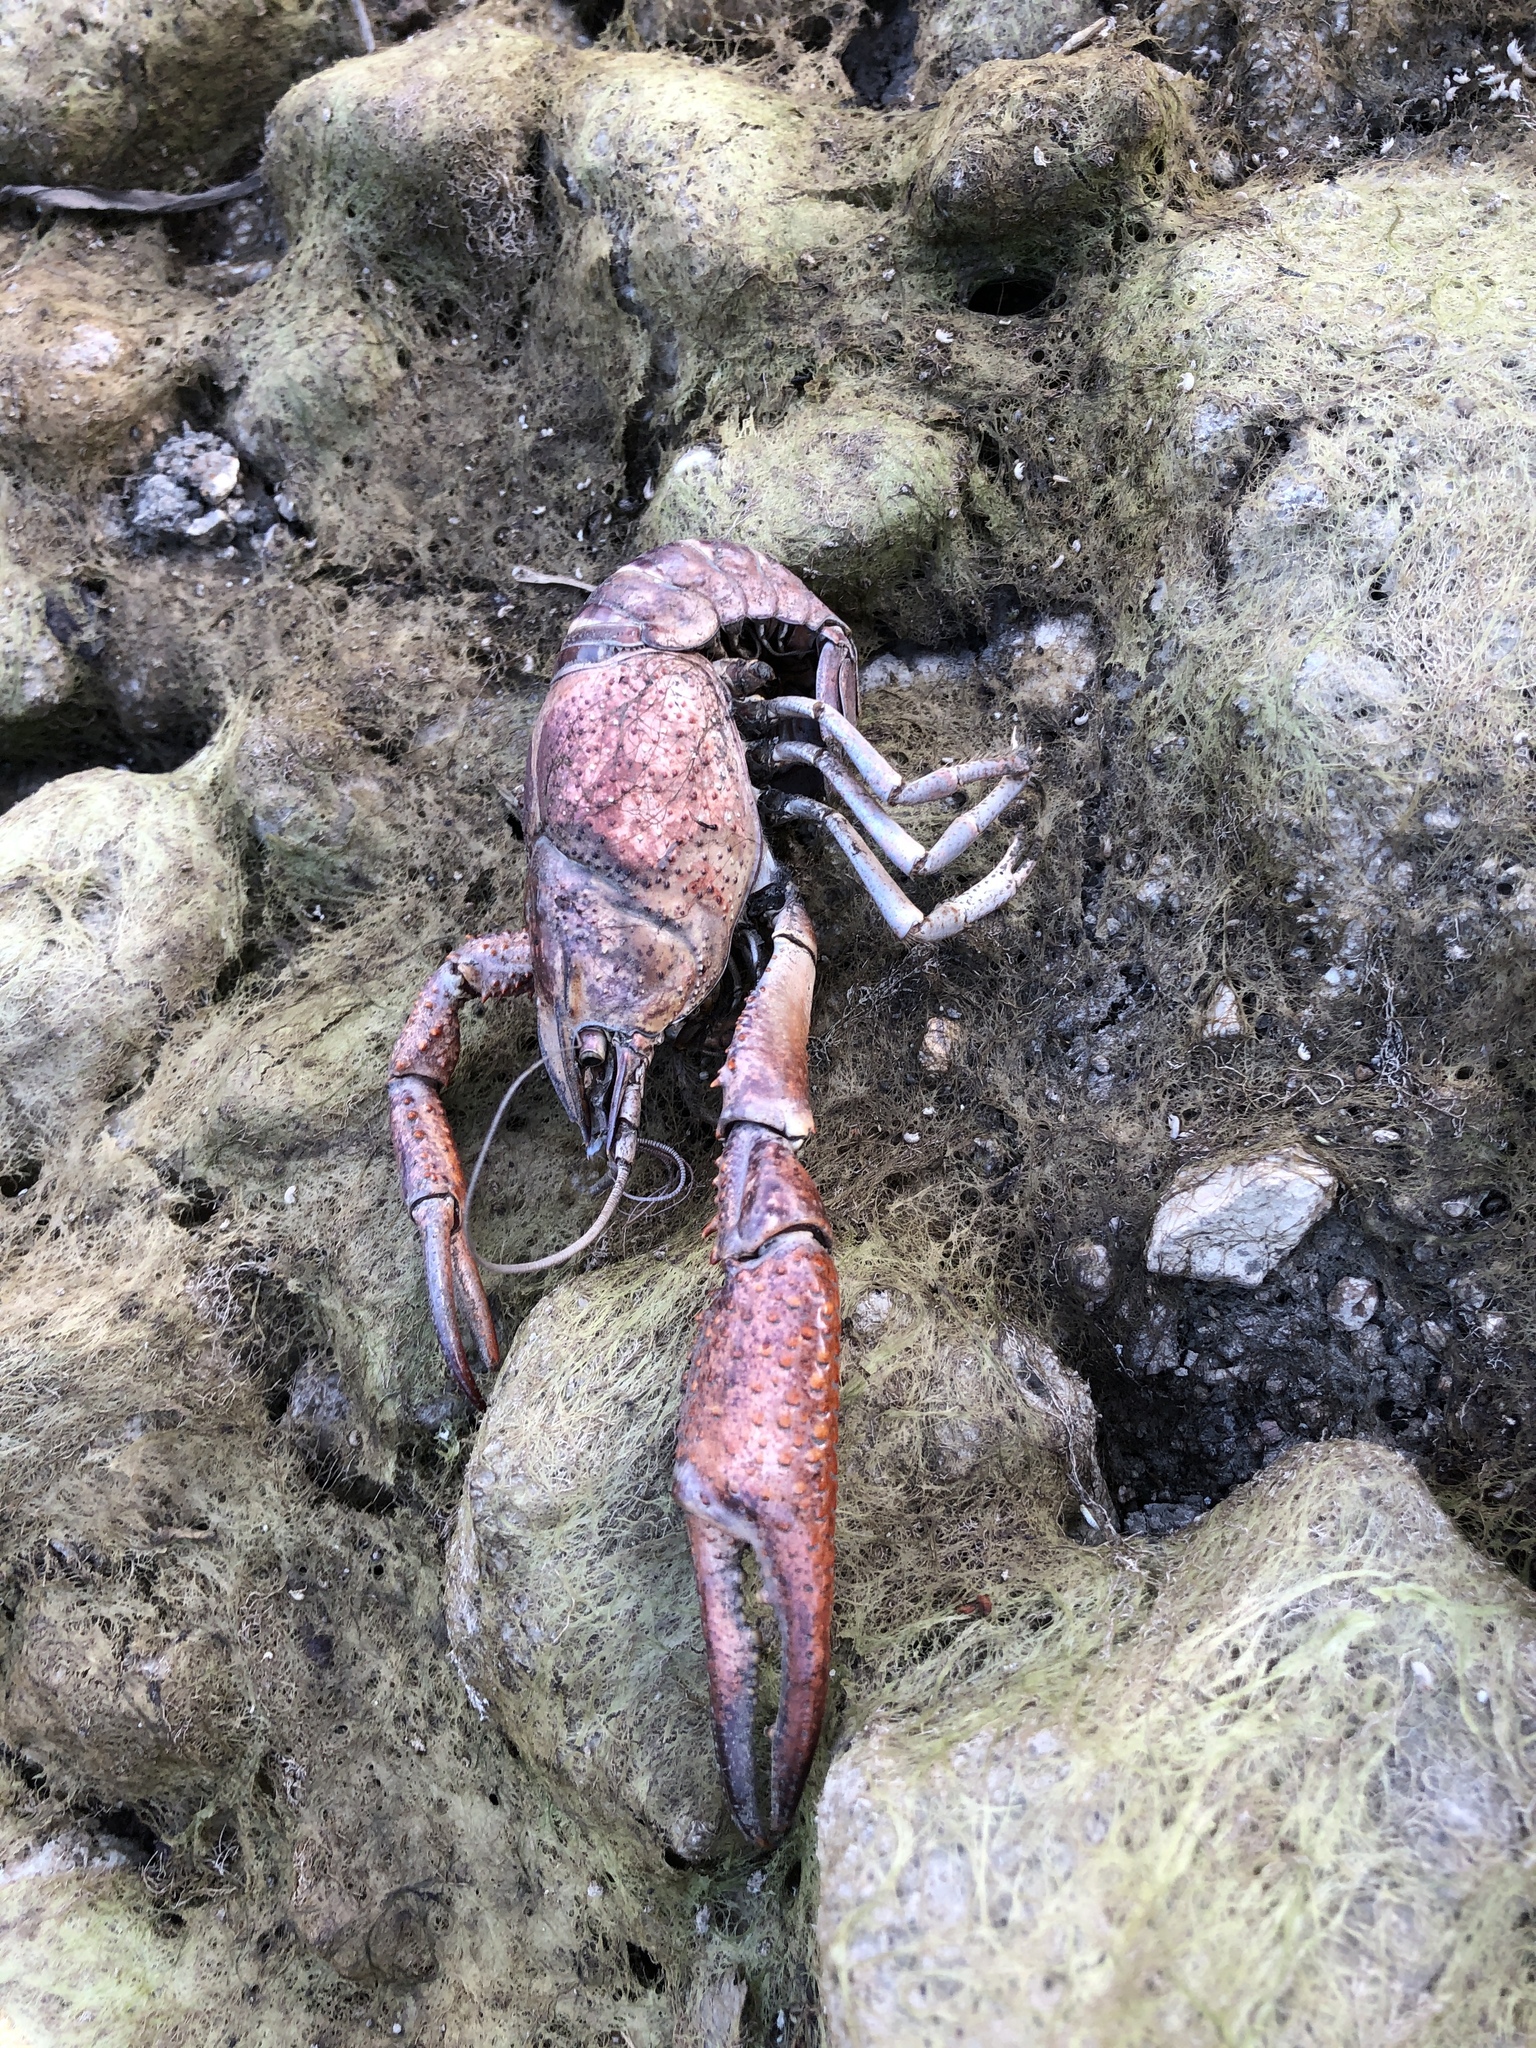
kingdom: Animalia
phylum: Arthropoda
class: Malacostraca
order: Decapoda
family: Cambaridae
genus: Procambarus
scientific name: Procambarus clarkii
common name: Red swamp crayfish
